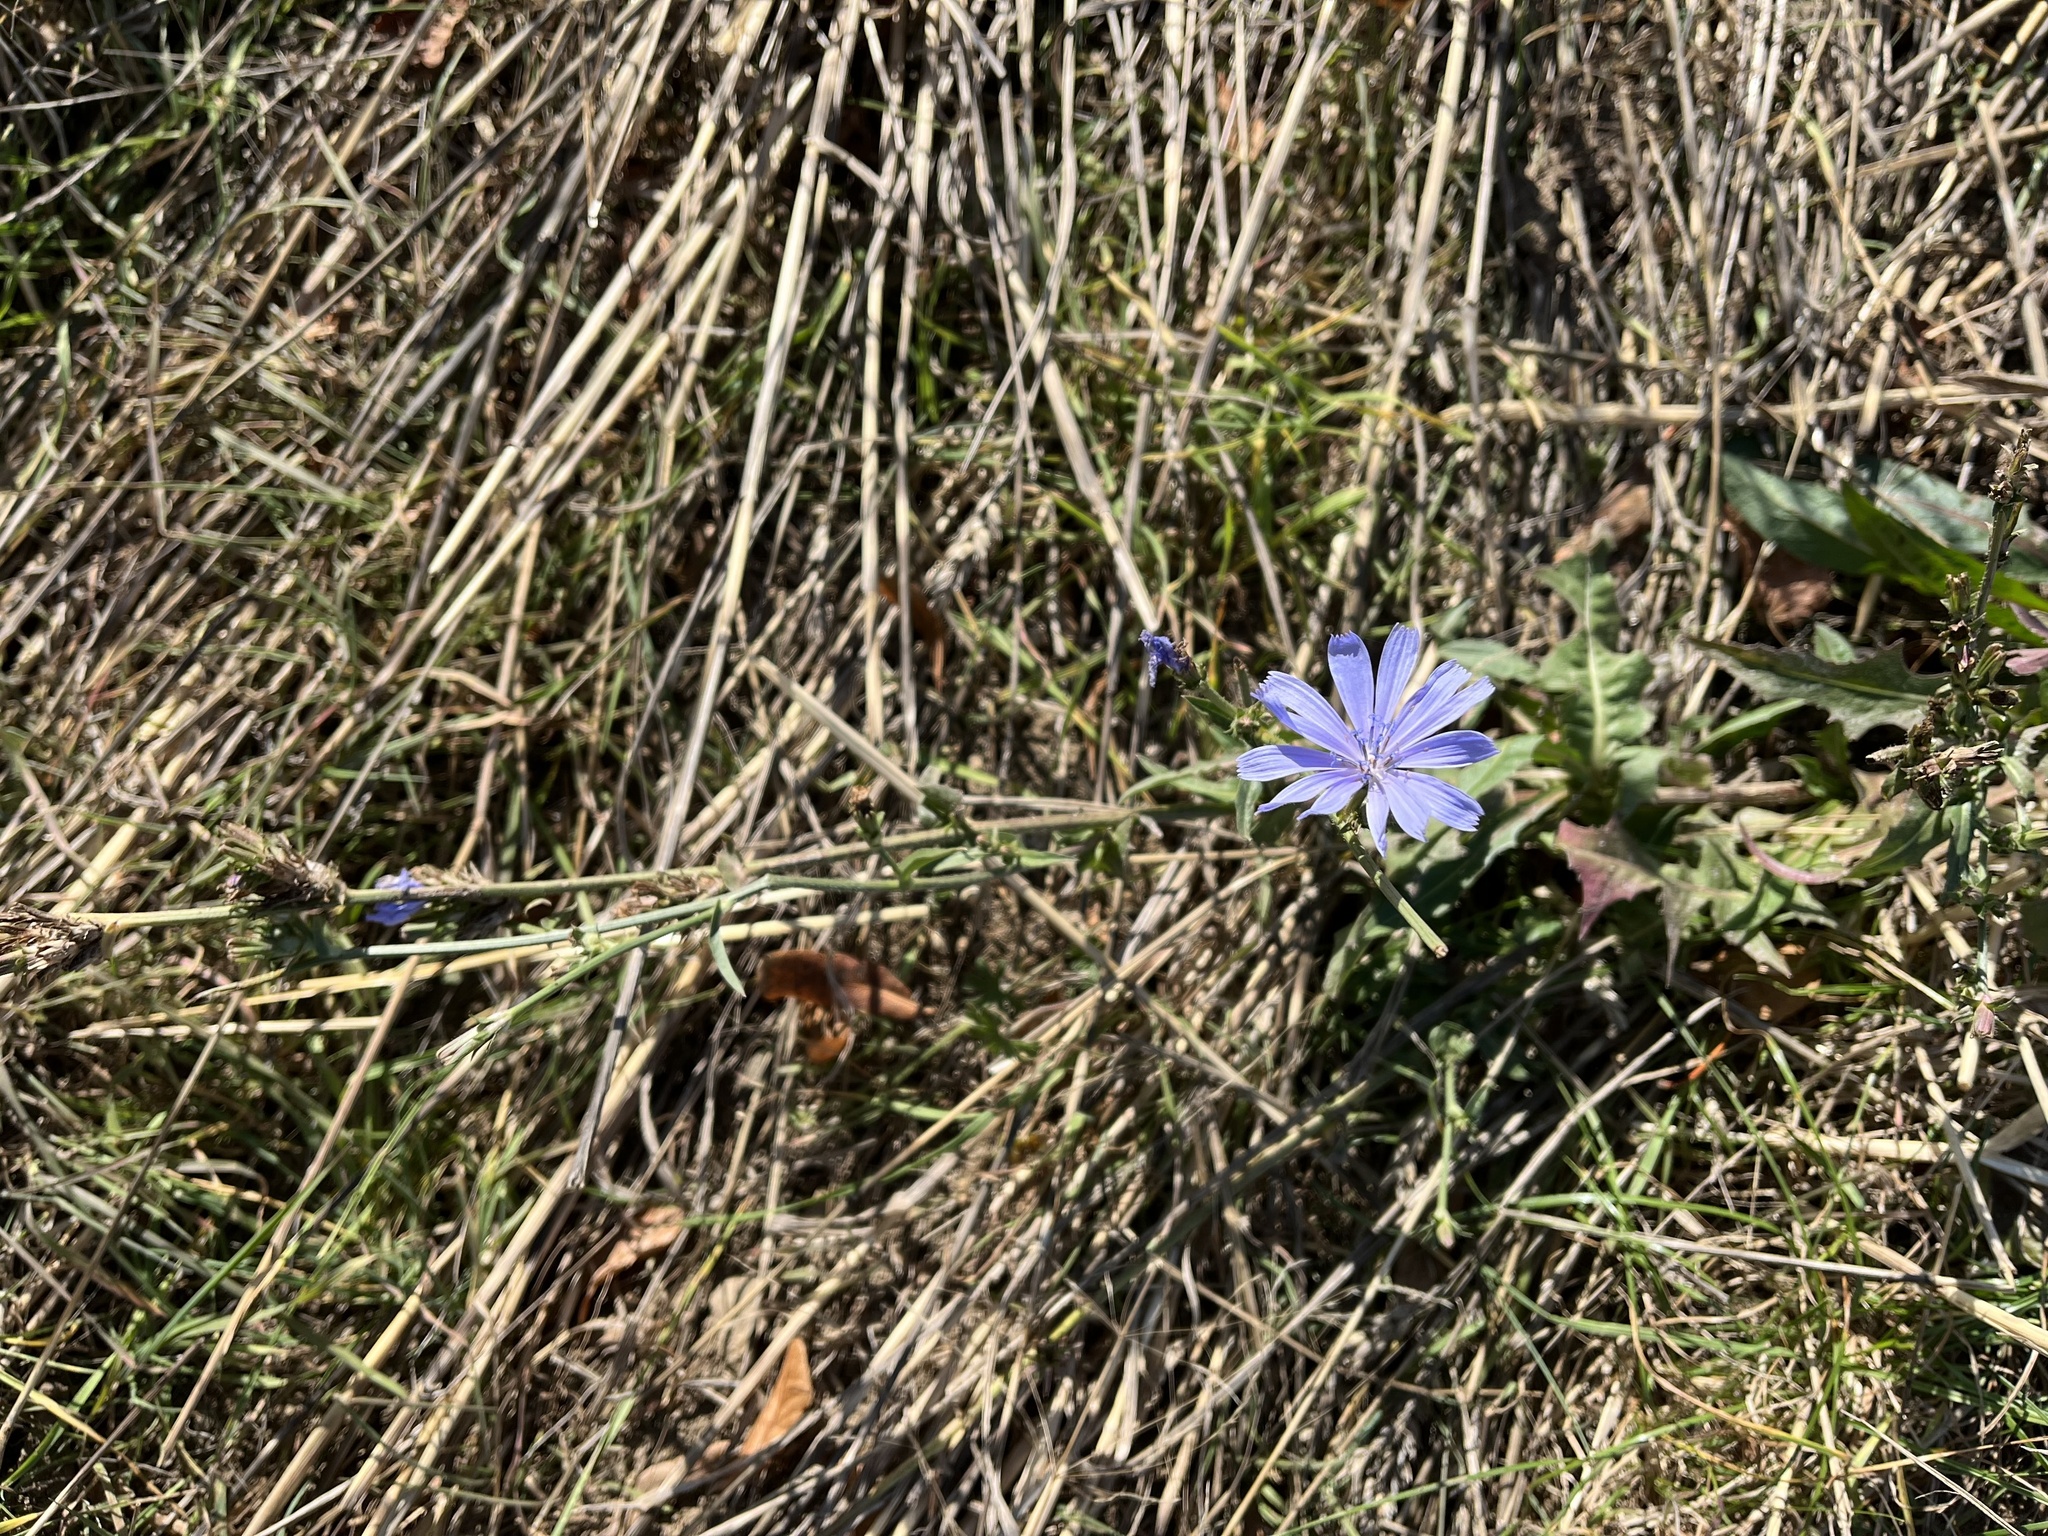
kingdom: Plantae
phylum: Tracheophyta
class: Magnoliopsida
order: Asterales
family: Asteraceae
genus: Cichorium
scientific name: Cichorium intybus
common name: Chicory
